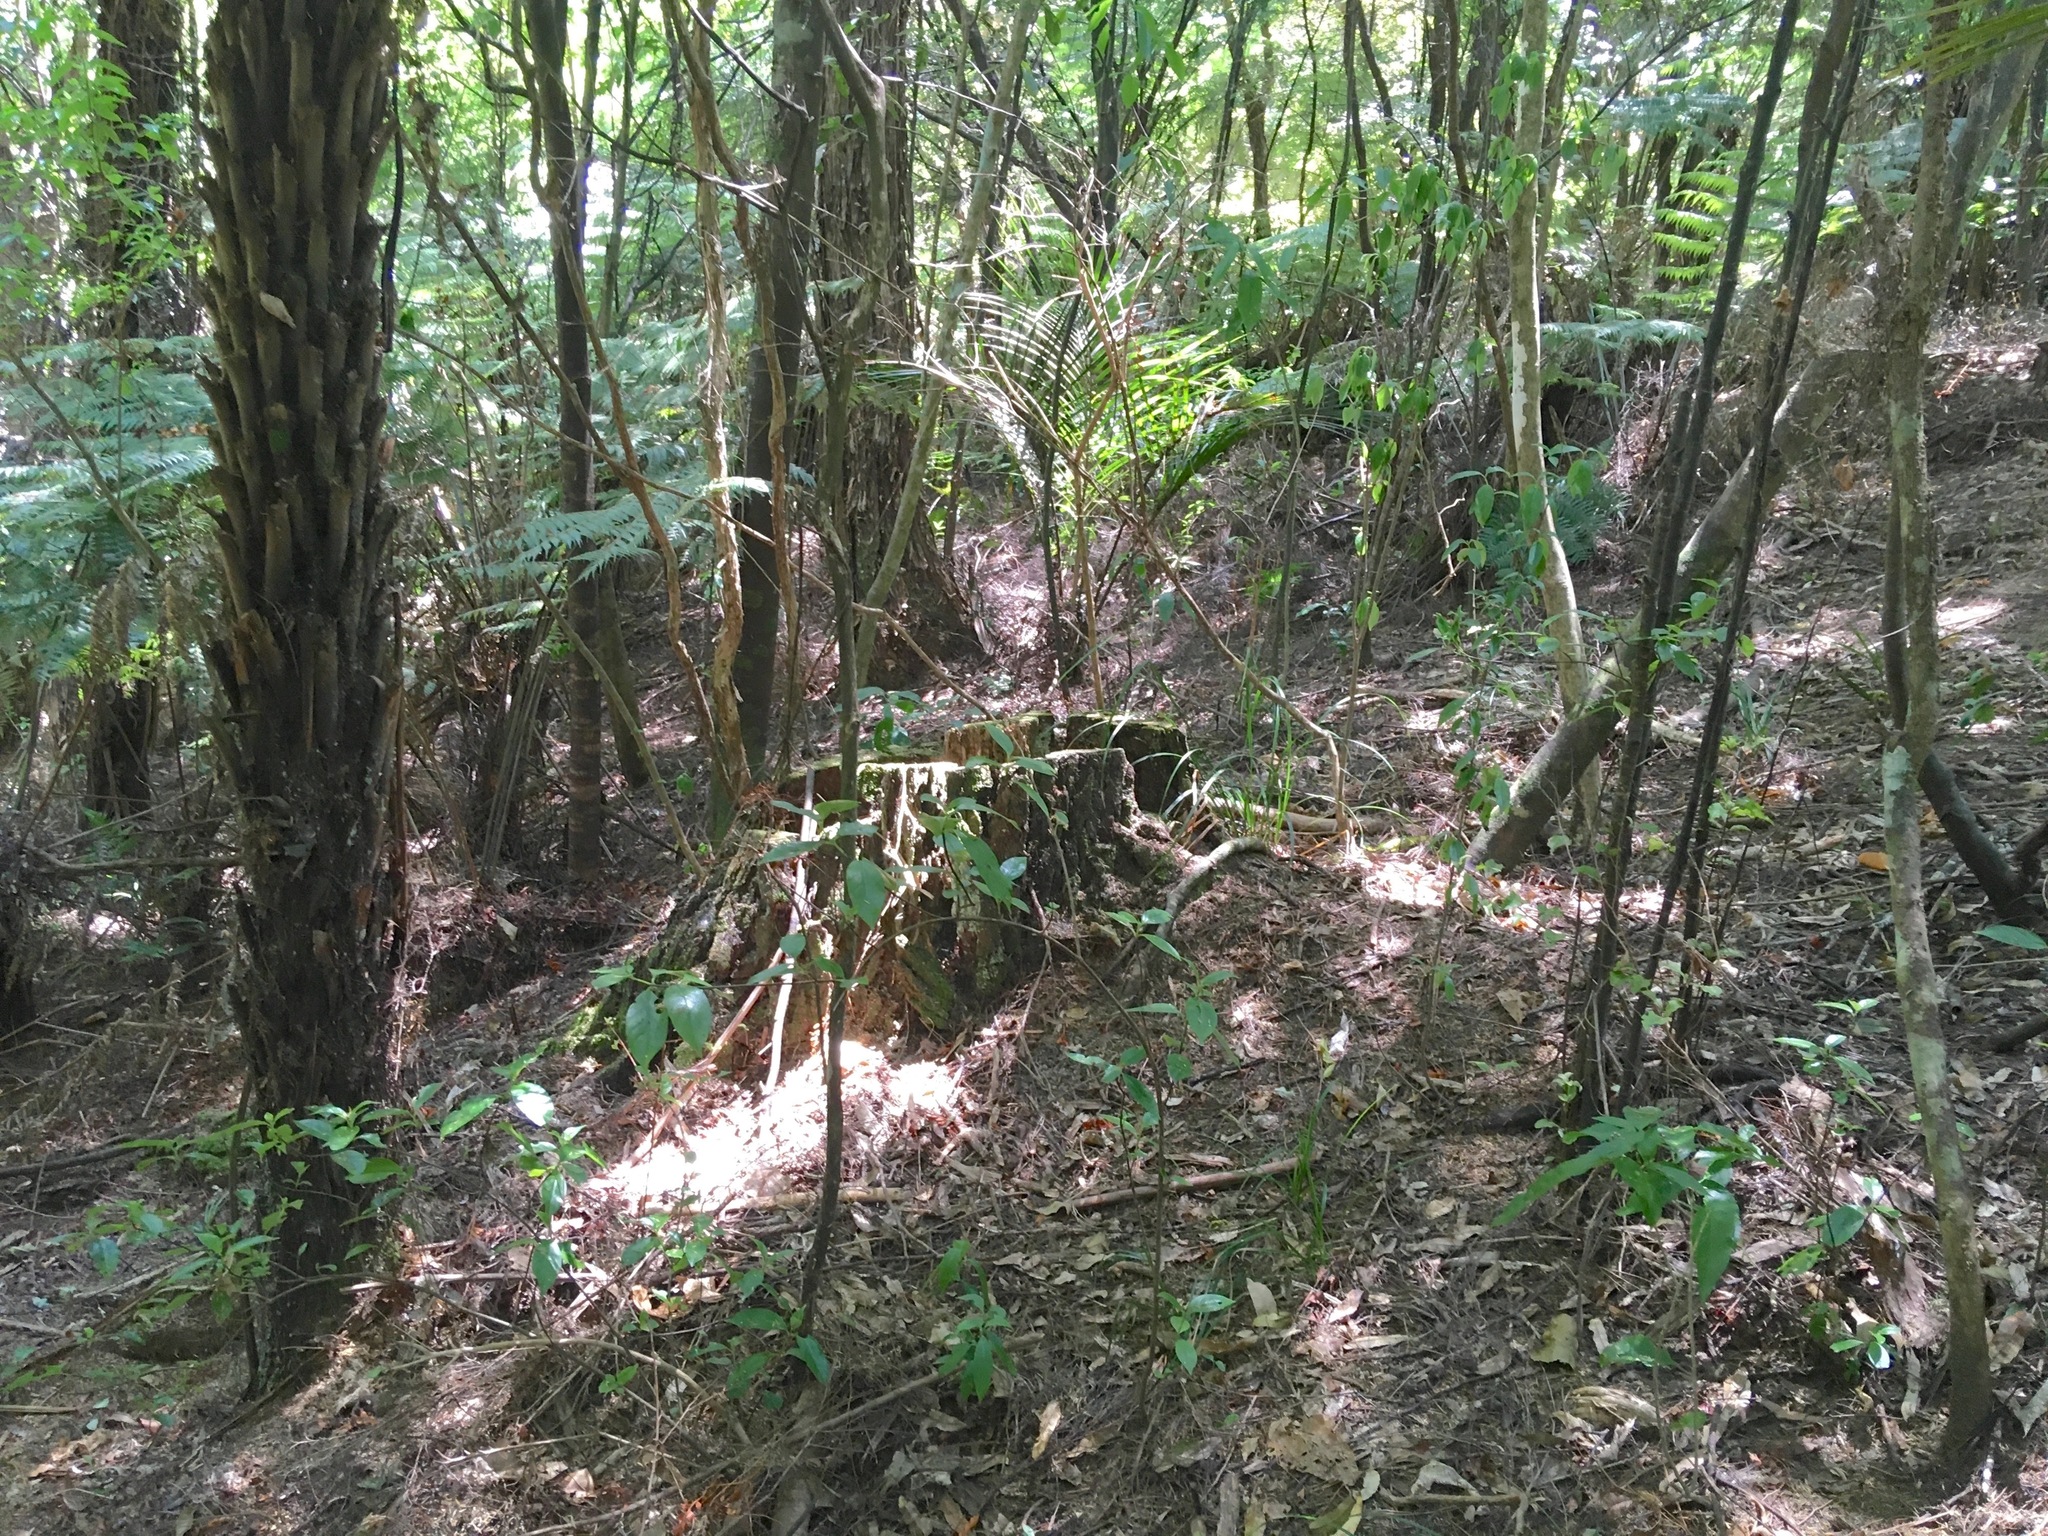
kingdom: Plantae
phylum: Tracheophyta
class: Magnoliopsida
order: Malpighiales
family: Violaceae
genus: Melicytus
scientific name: Melicytus ramiflorus
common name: Mahoe
